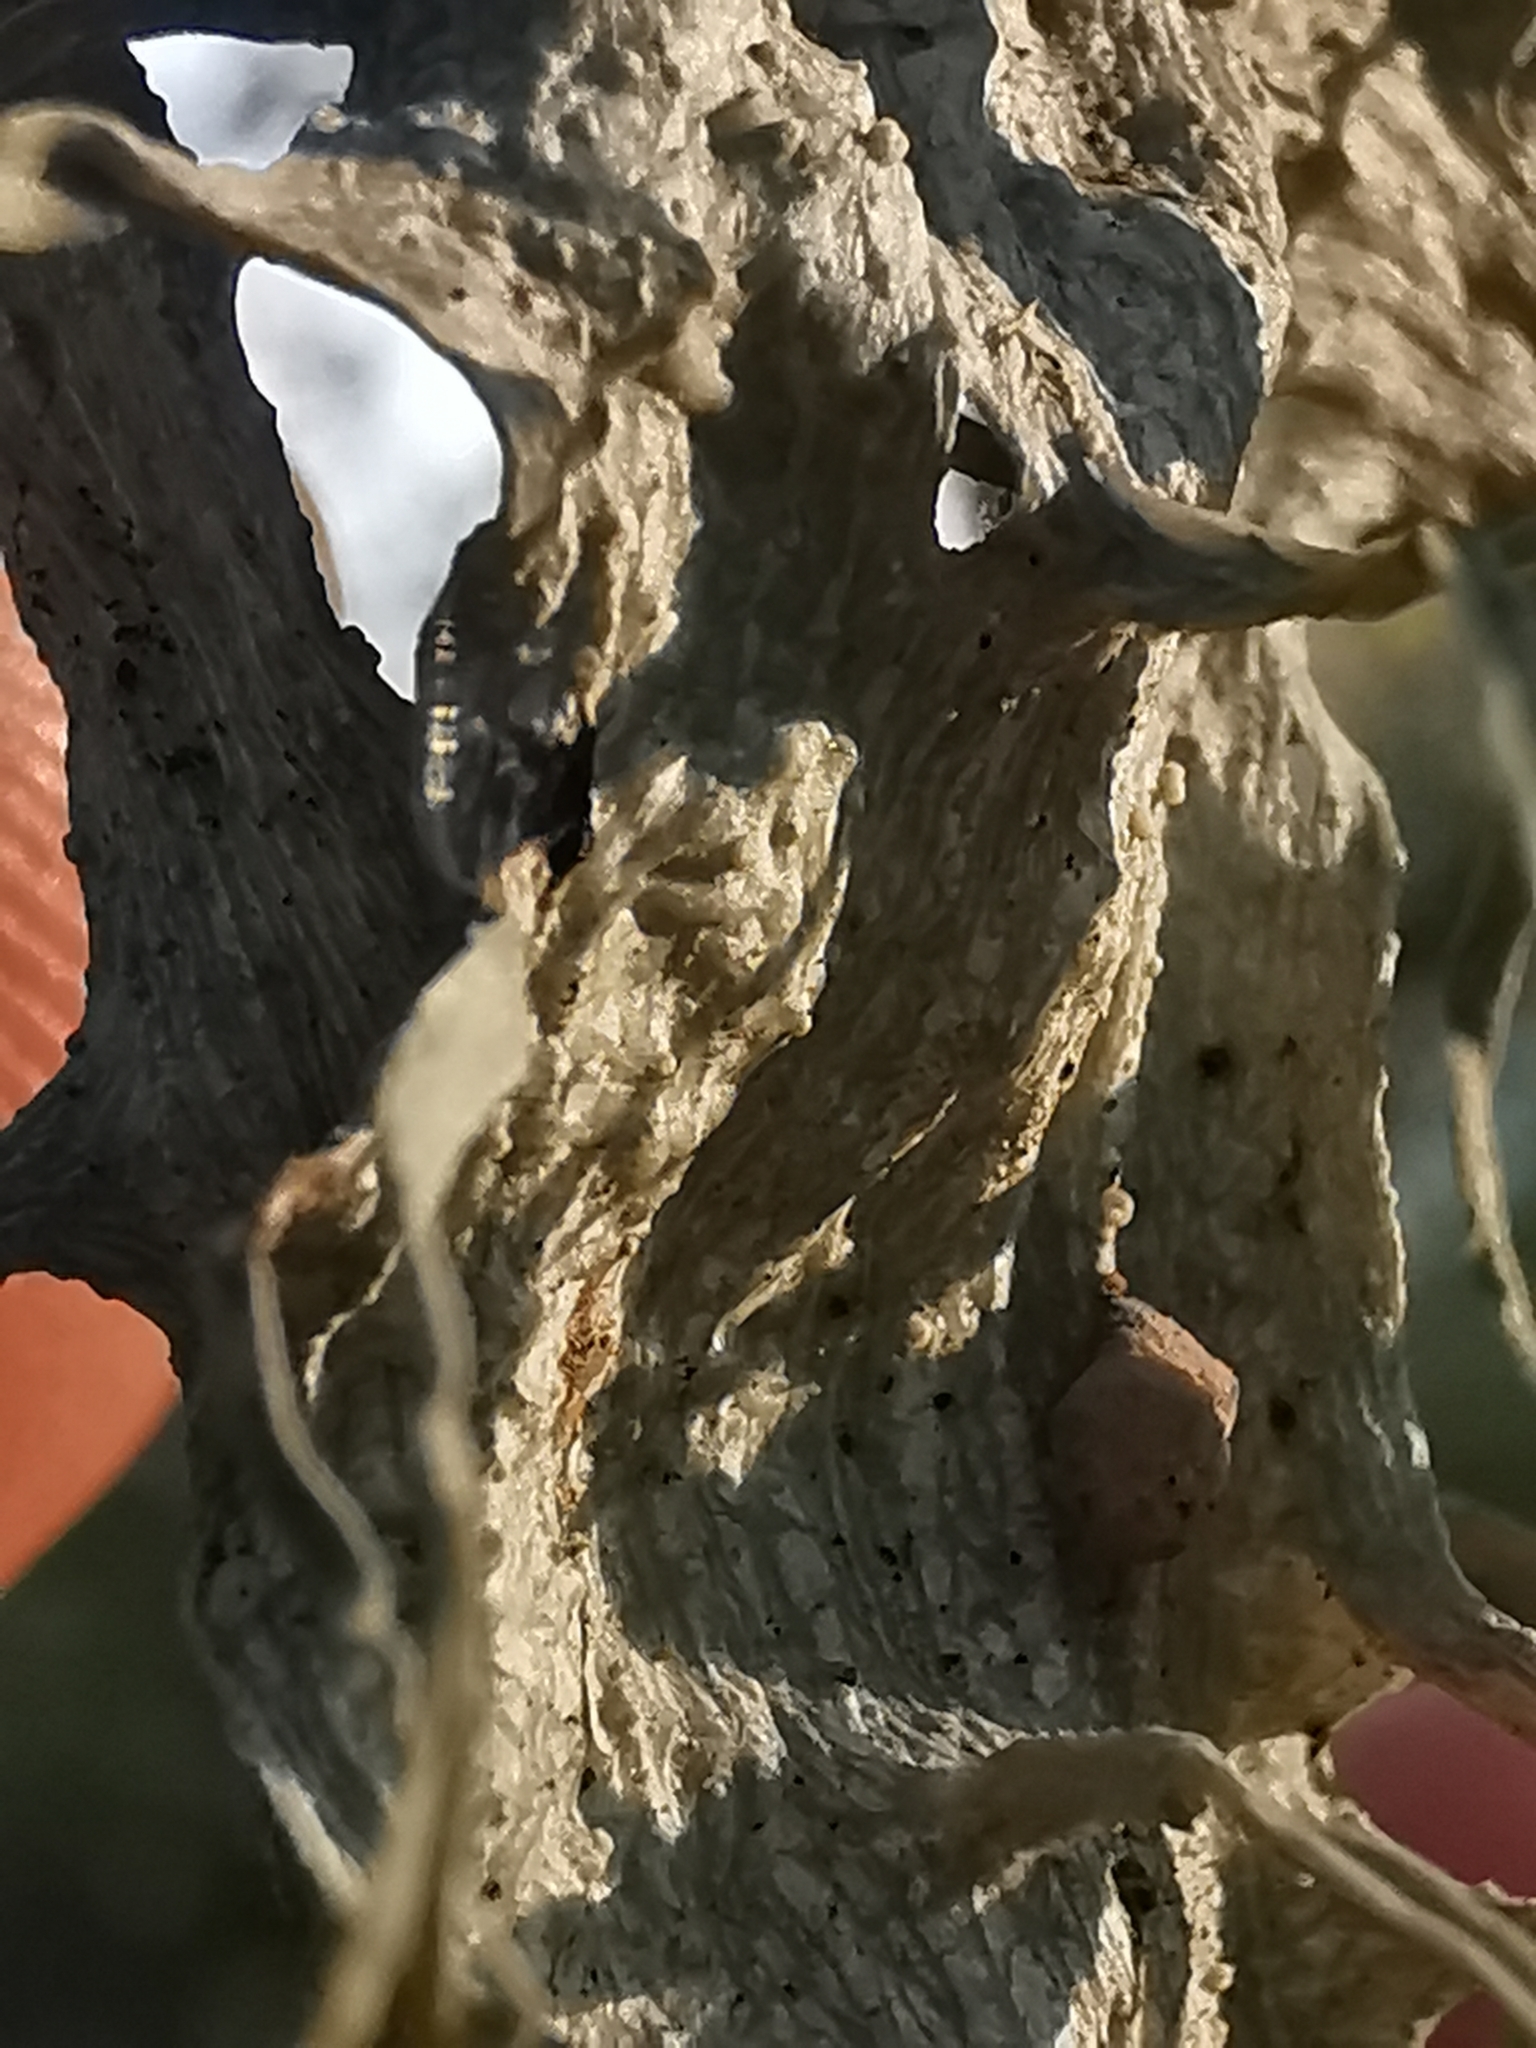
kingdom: Fungi
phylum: Ascomycota
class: Lecanoromycetes
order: Lecanorales
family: Ramalinaceae
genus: Ramalina
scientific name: Ramalina
